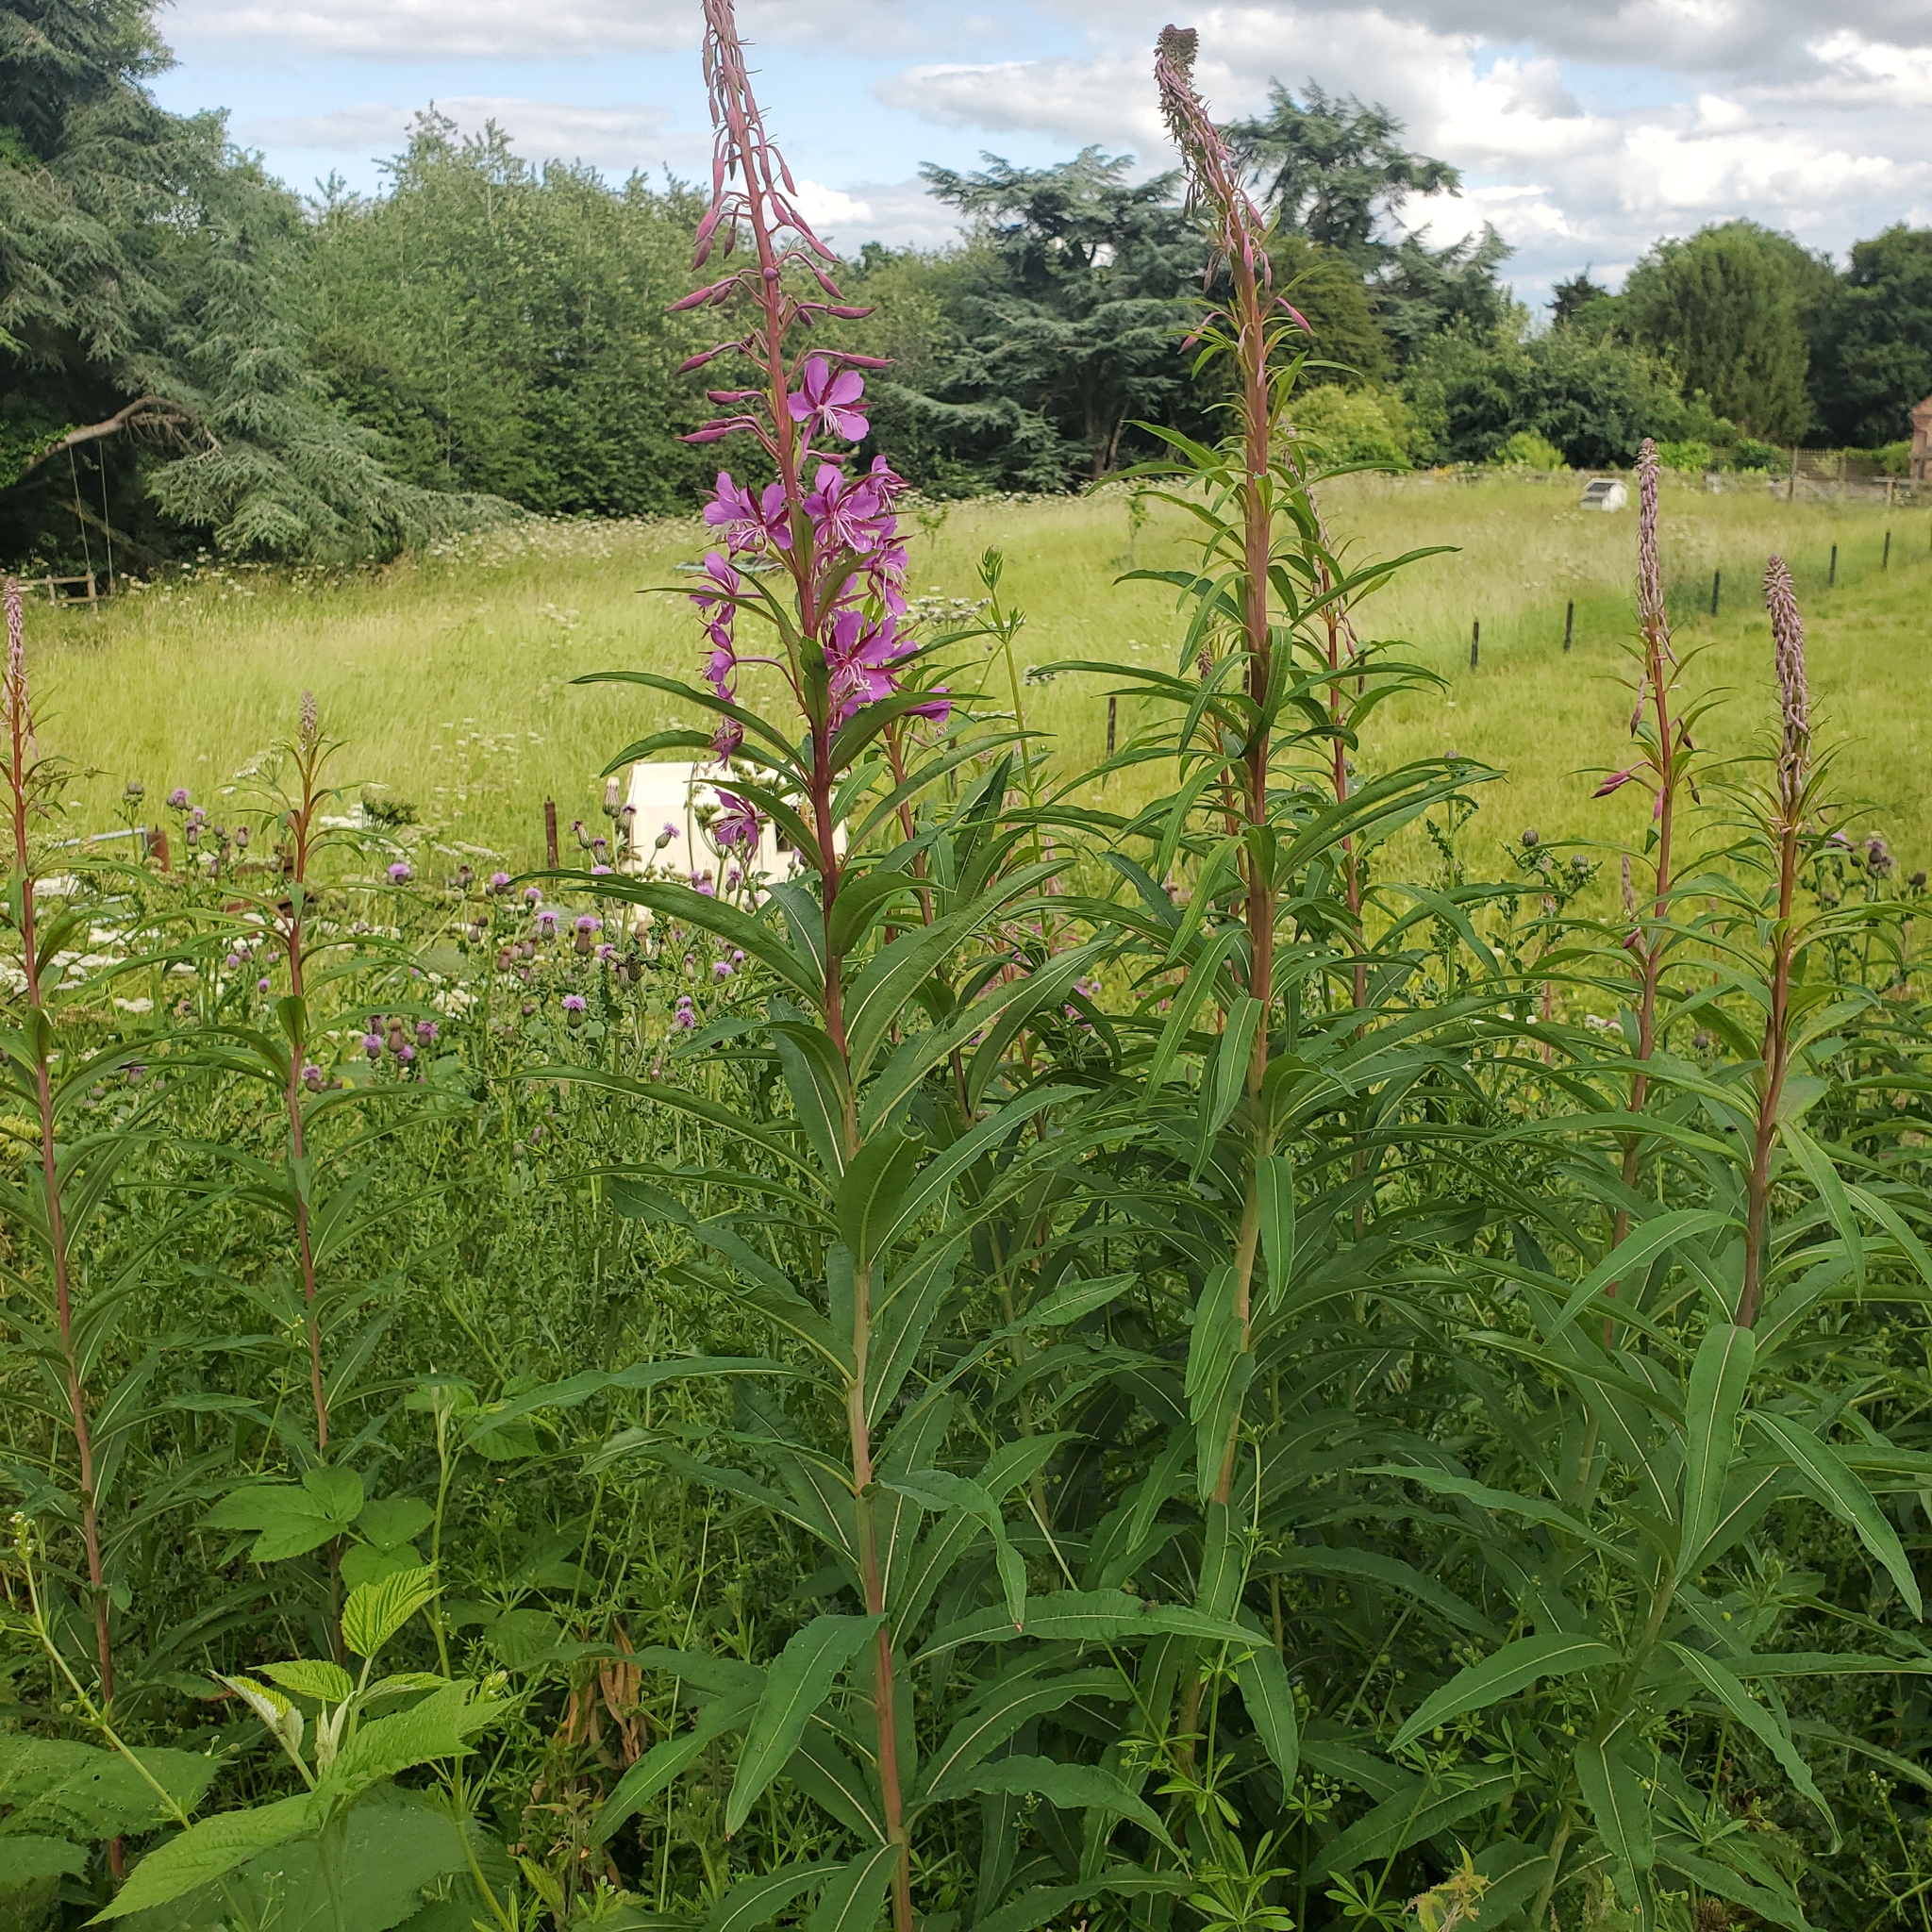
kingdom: Plantae
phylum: Tracheophyta
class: Magnoliopsida
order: Myrtales
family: Onagraceae
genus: Chamaenerion
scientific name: Chamaenerion angustifolium
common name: Fireweed
